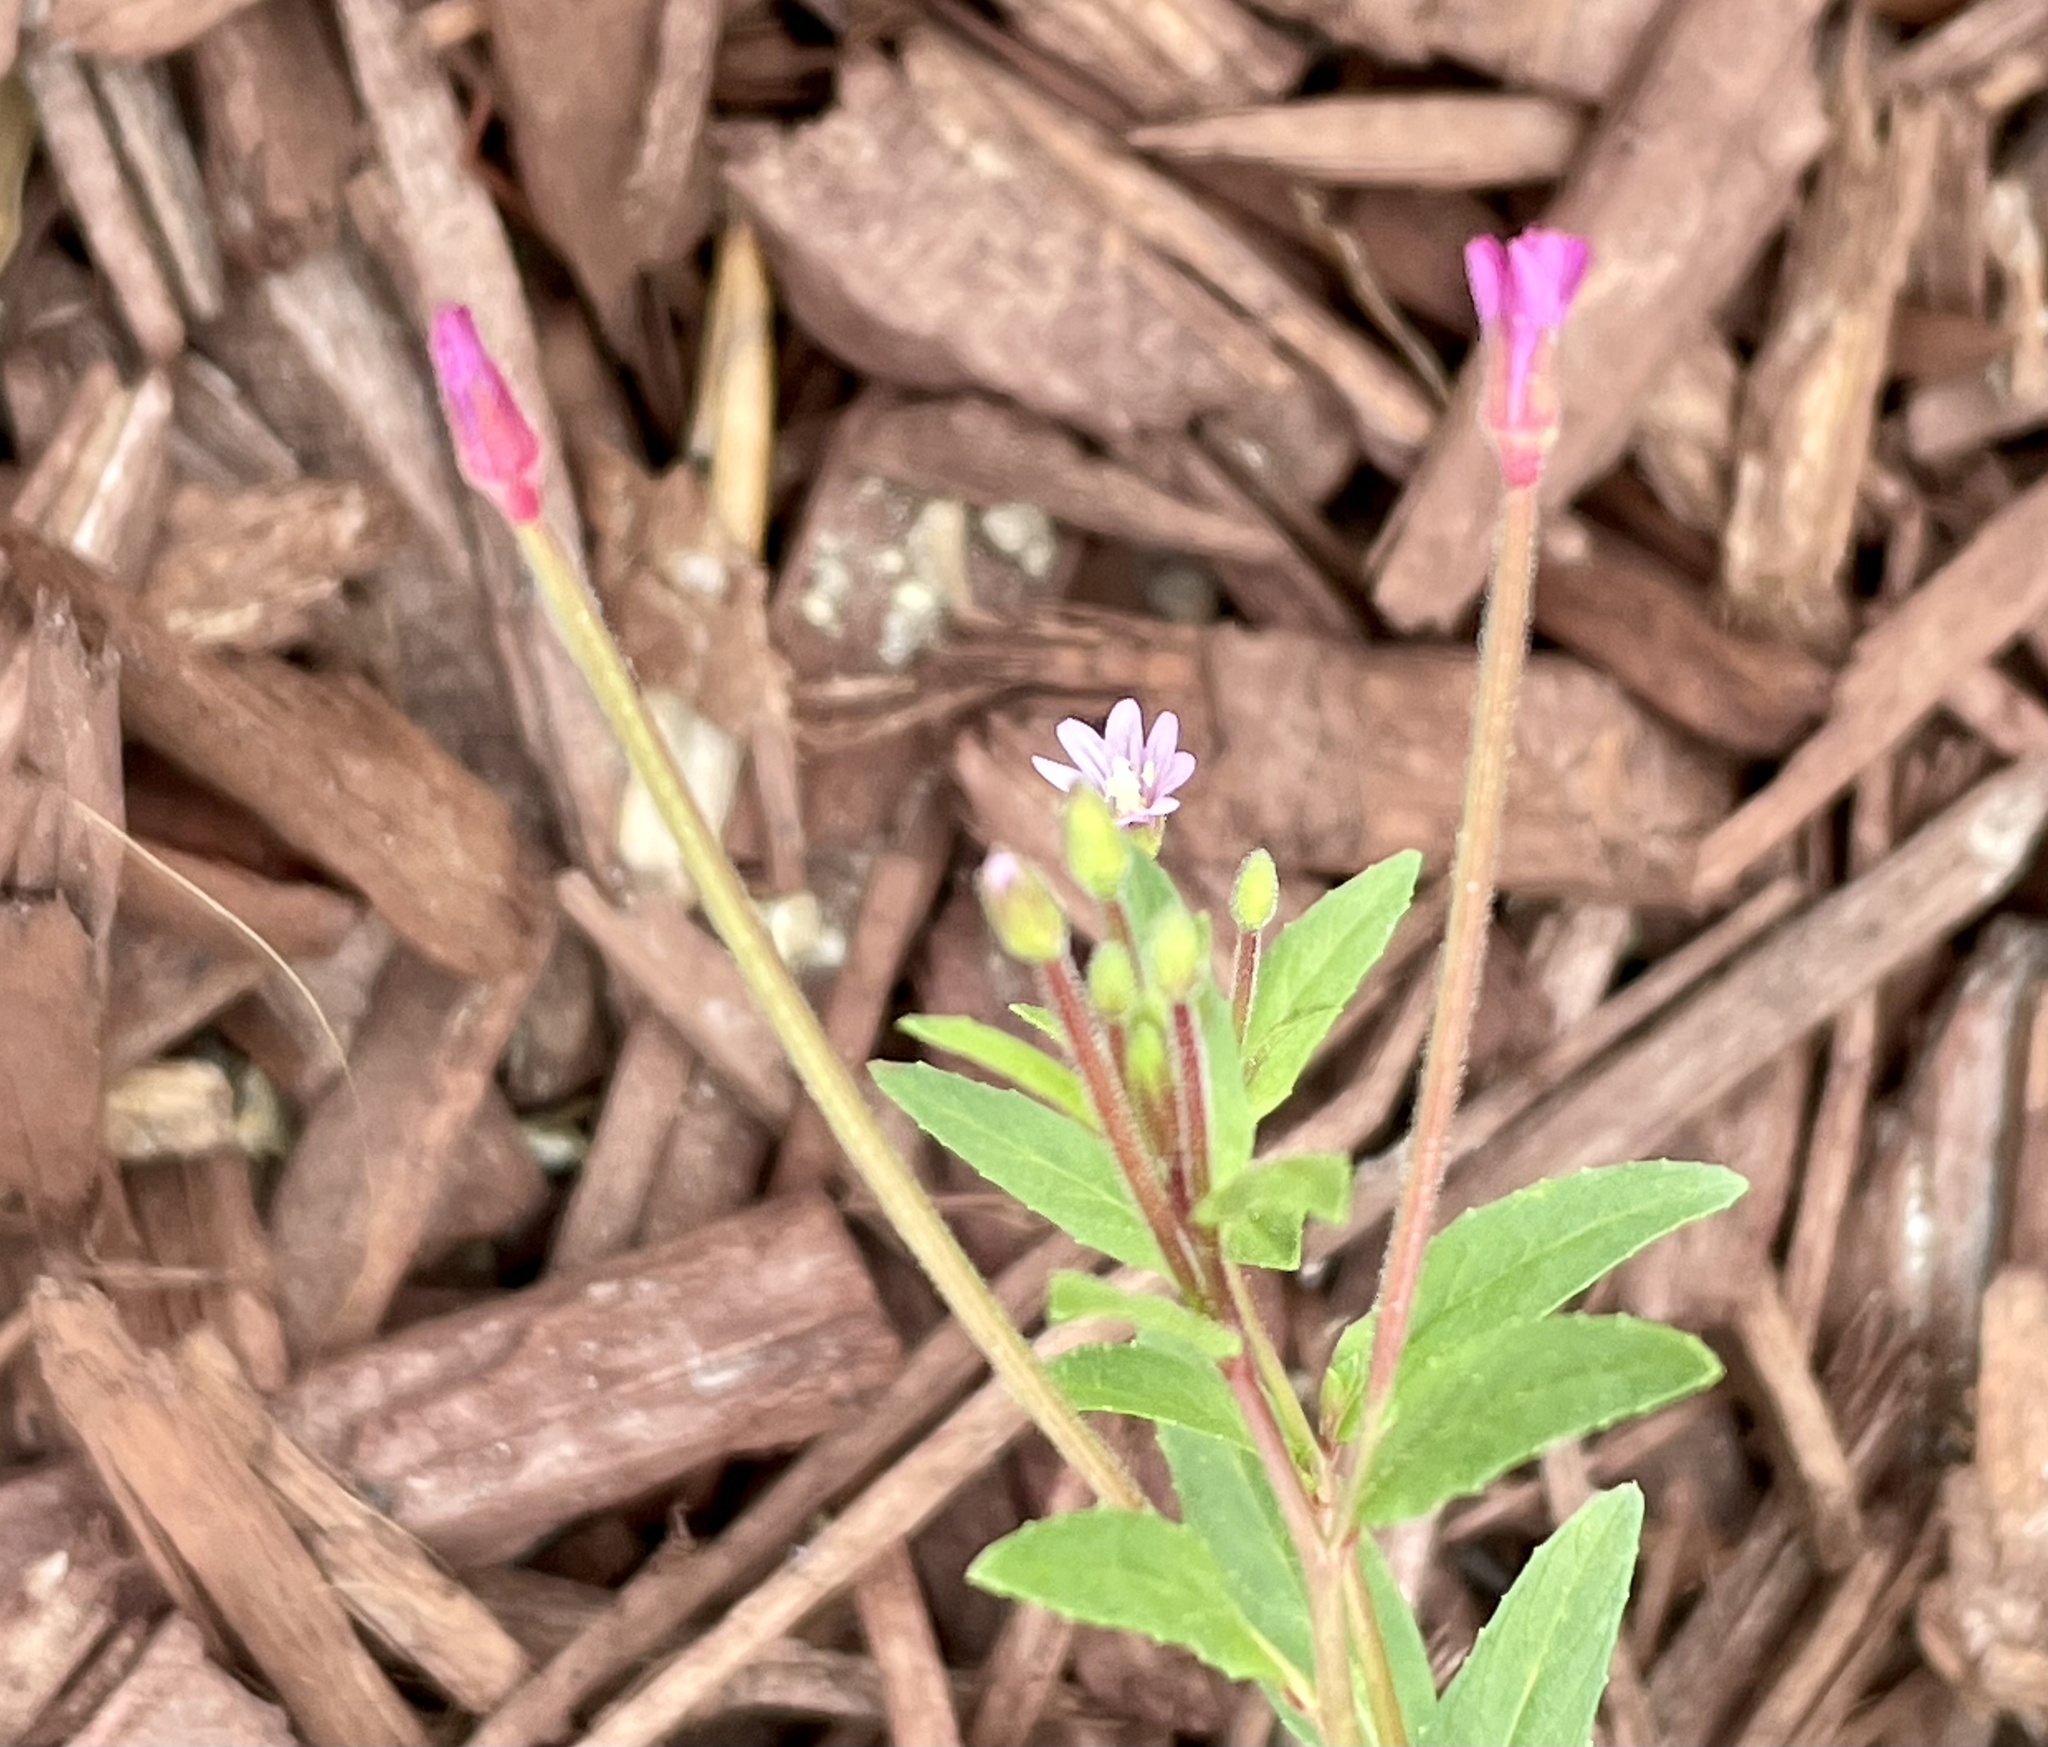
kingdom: Plantae
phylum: Tracheophyta
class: Magnoliopsida
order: Myrtales
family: Onagraceae
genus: Epilobium
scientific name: Epilobium ciliatum
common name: American willowherb
